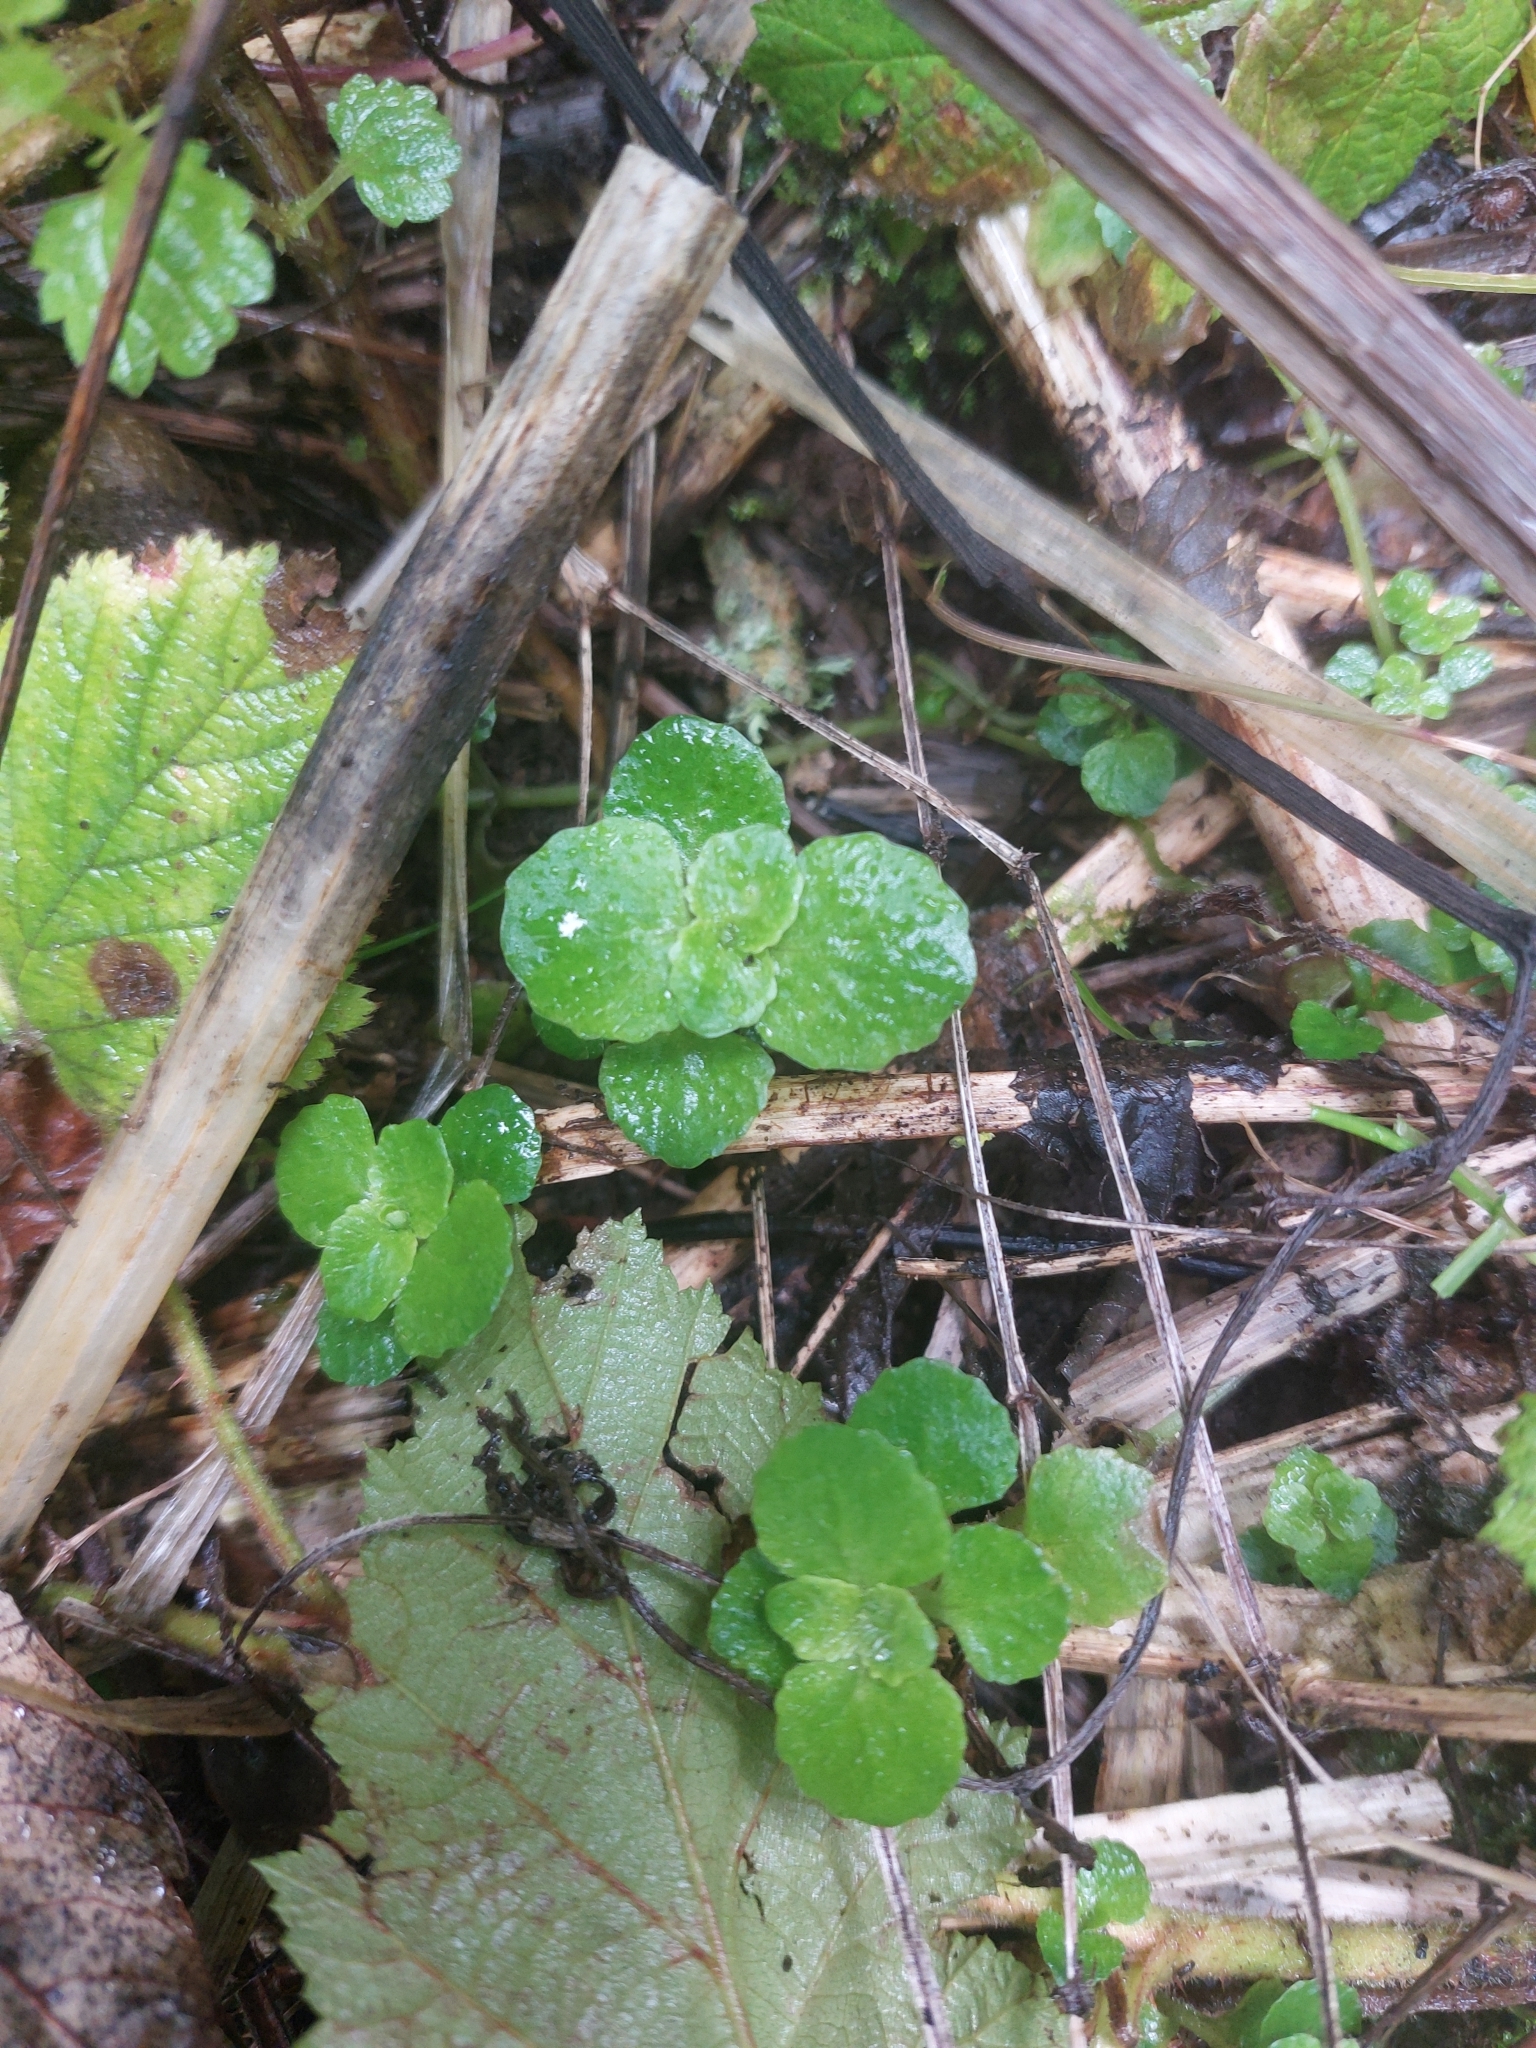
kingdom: Plantae
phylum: Tracheophyta
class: Magnoliopsida
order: Saxifragales
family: Saxifragaceae
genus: Chrysosplenium
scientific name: Chrysosplenium oppositifolium
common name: Opposite-leaved golden-saxifrage
